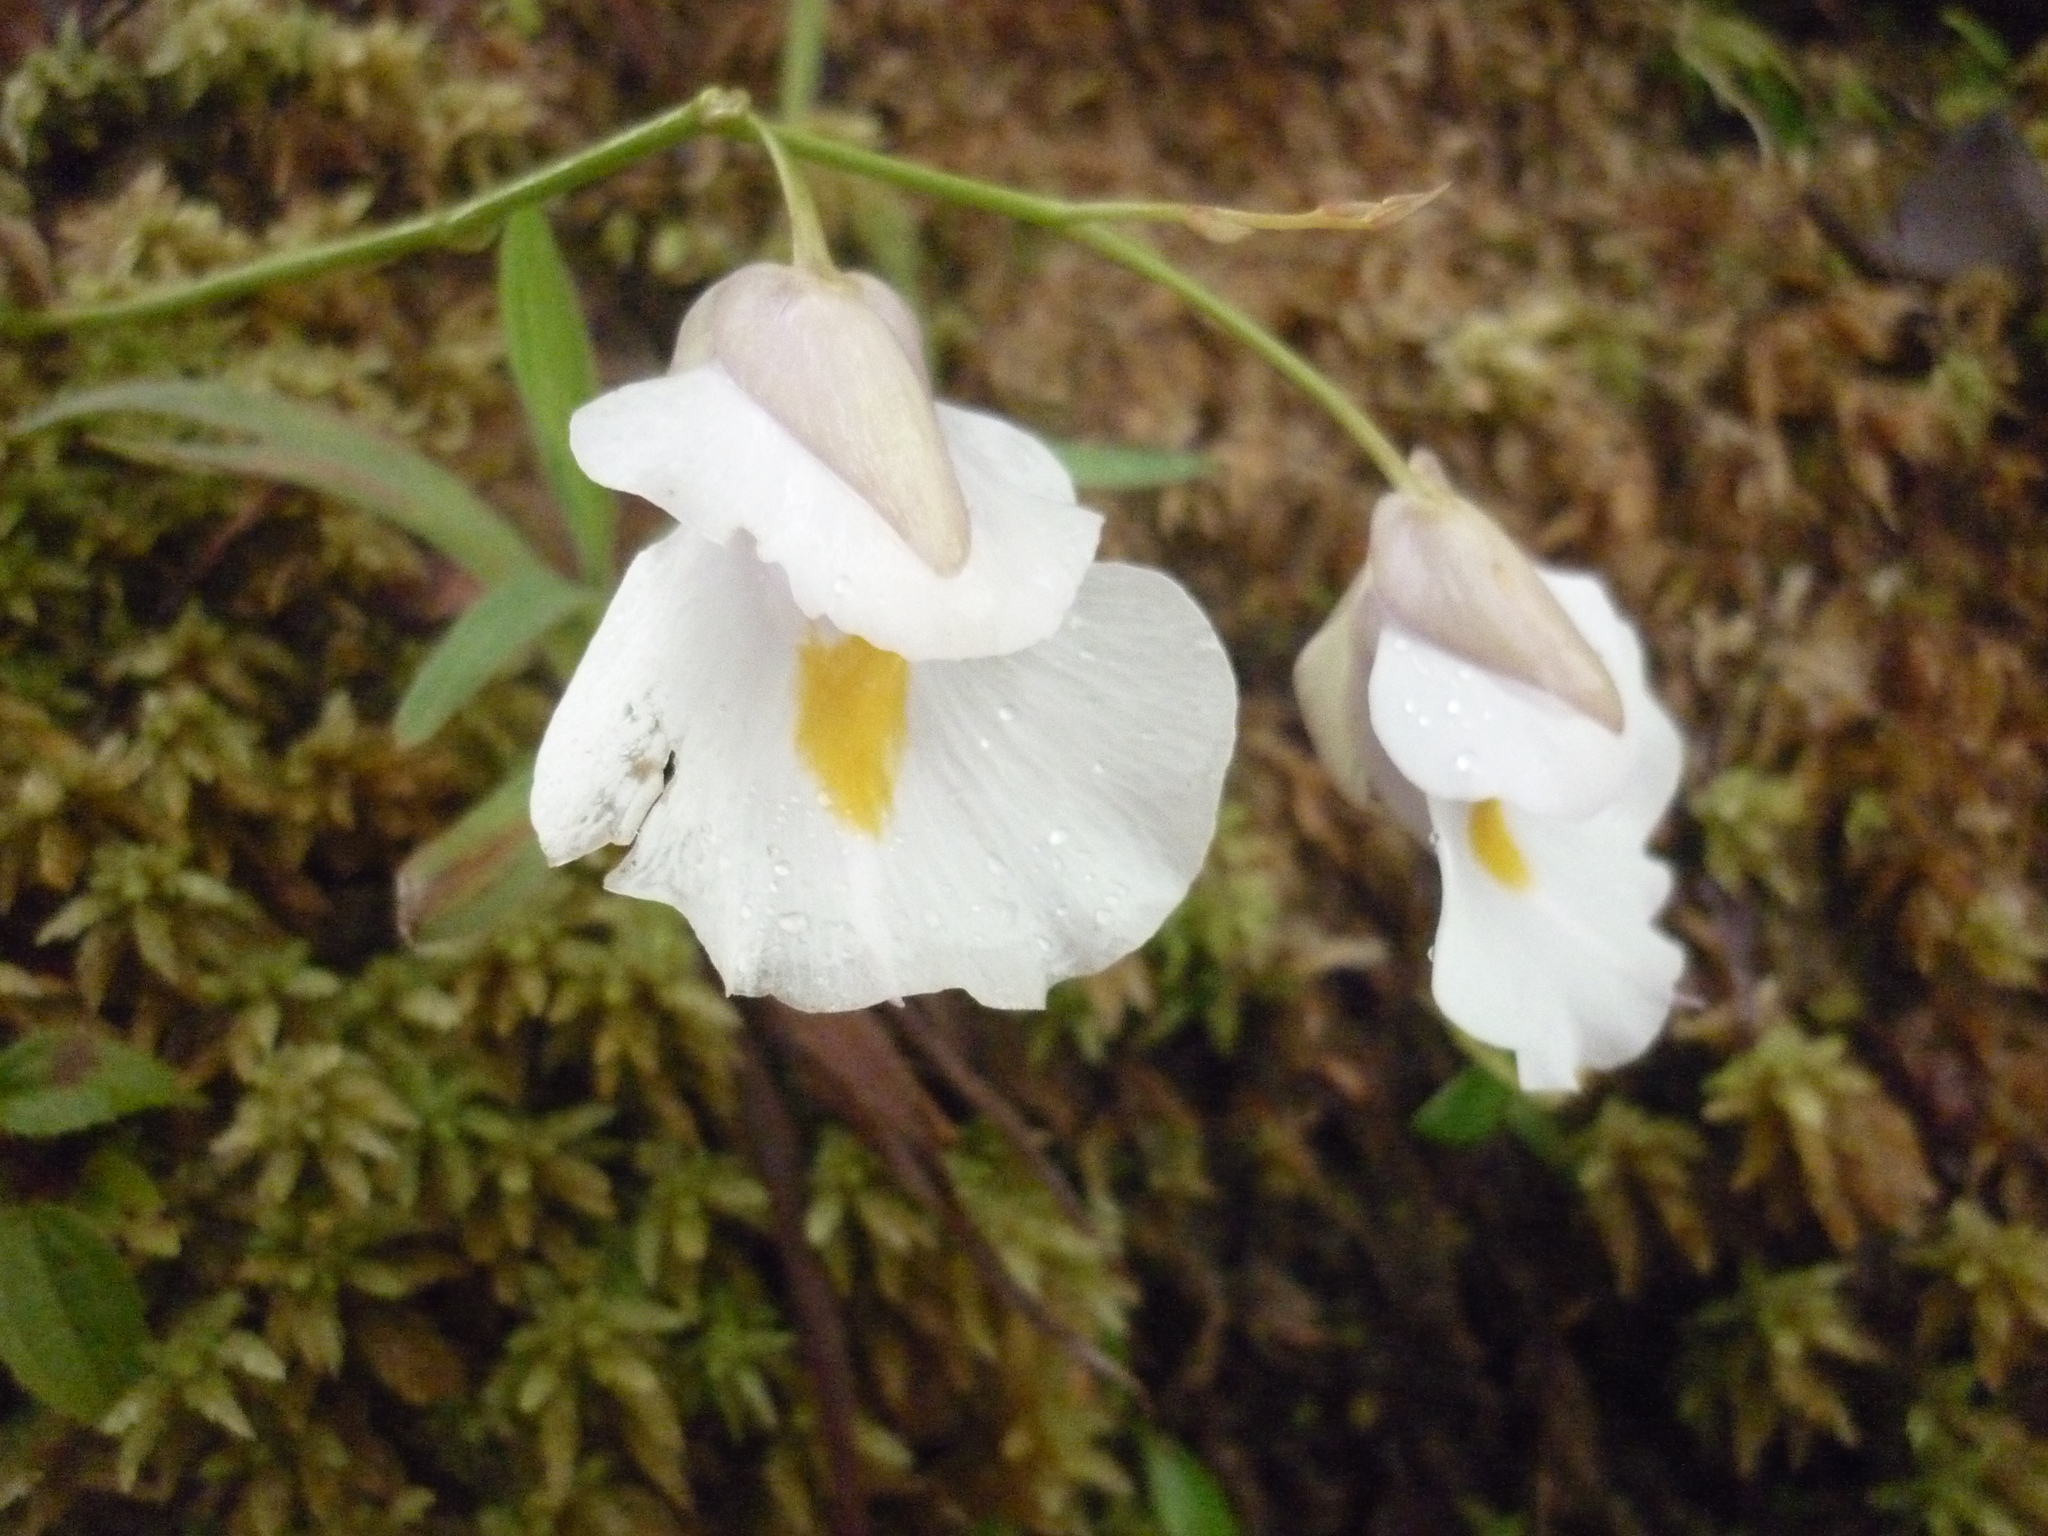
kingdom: Plantae
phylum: Tracheophyta
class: Magnoliopsida
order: Lamiales
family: Lentibulariaceae
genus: Utricularia
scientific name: Utricularia alpina
